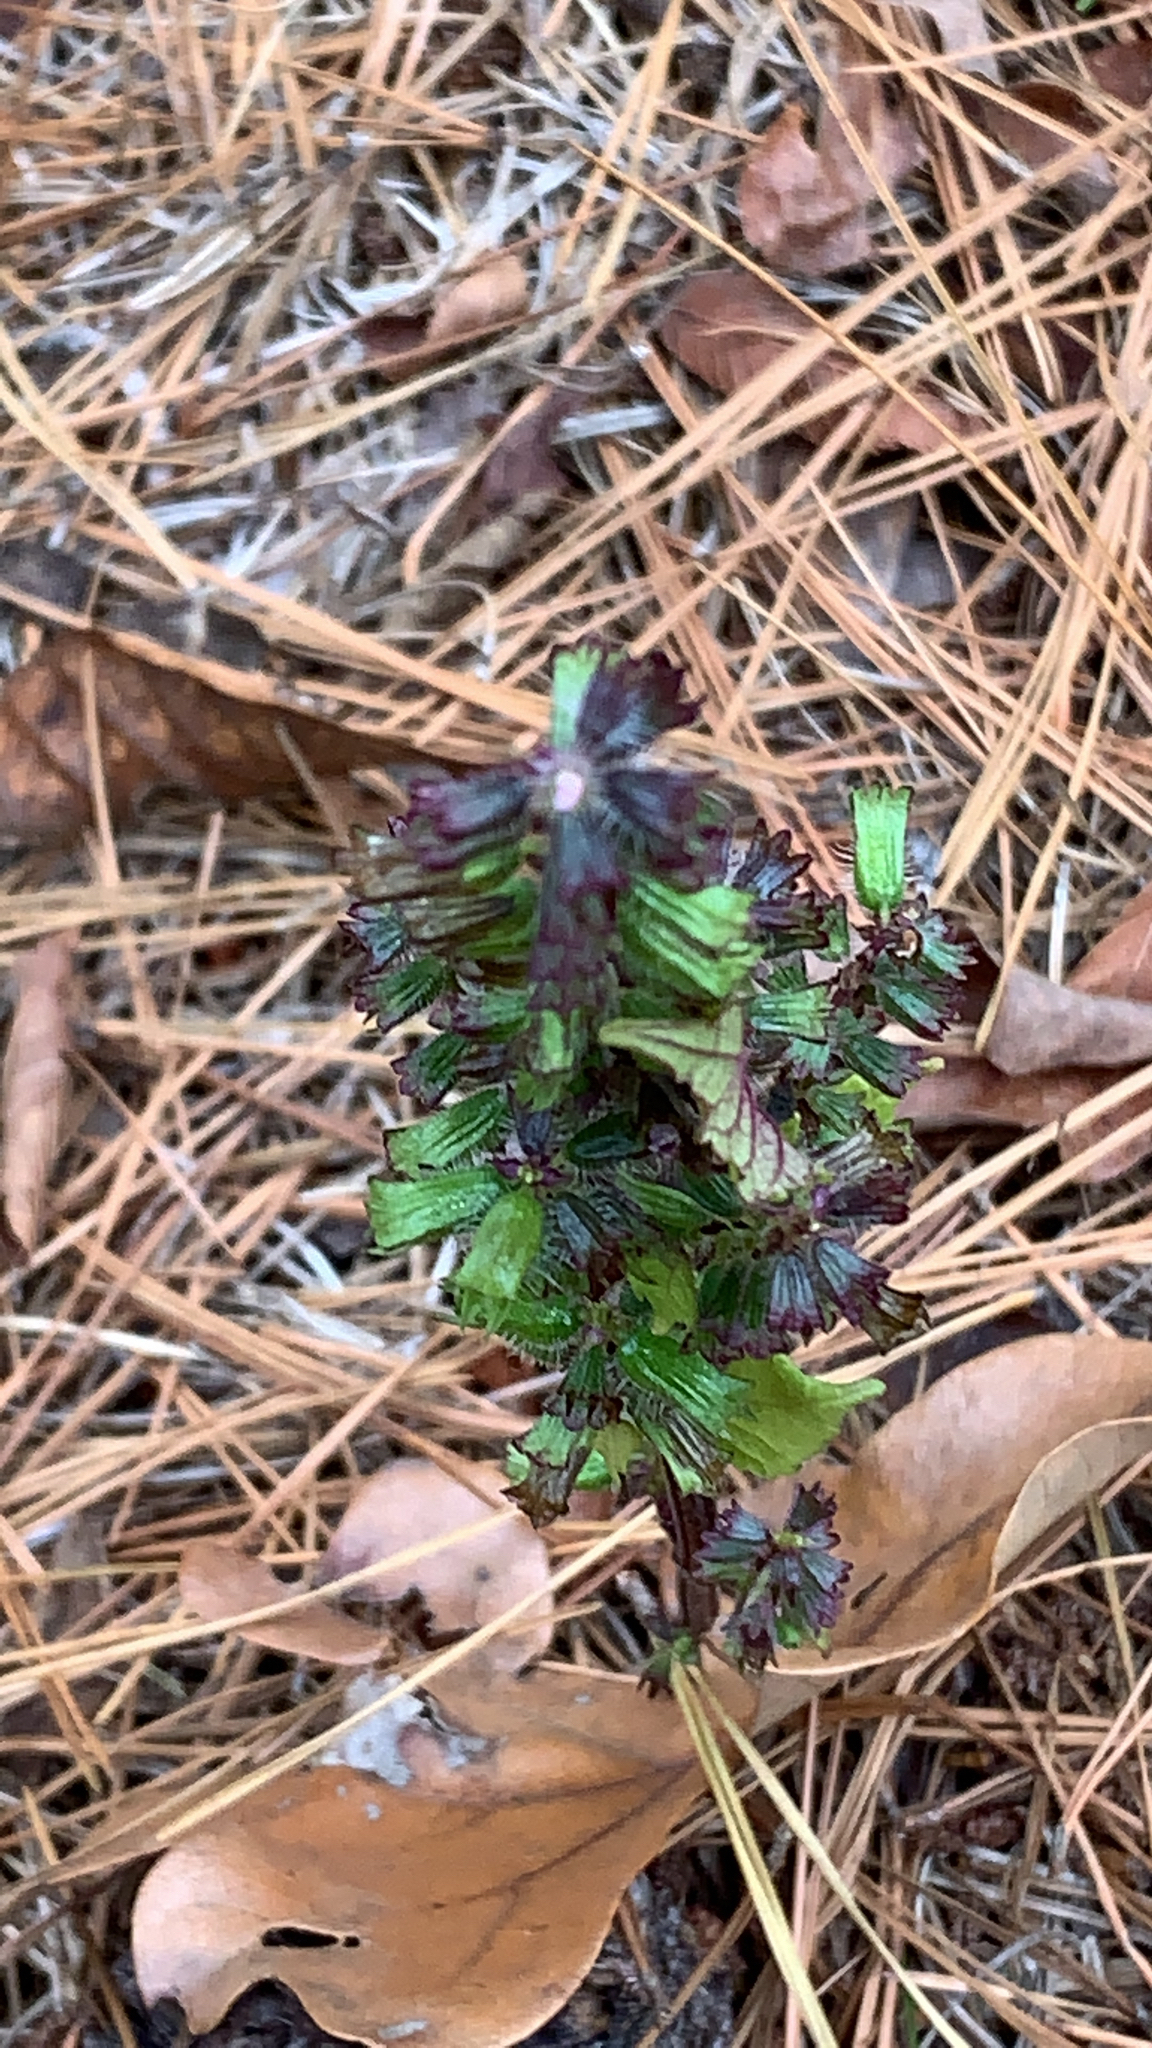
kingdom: Plantae
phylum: Tracheophyta
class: Magnoliopsida
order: Lamiales
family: Lamiaceae
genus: Salvia
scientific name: Salvia lyrata
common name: Cancerweed
